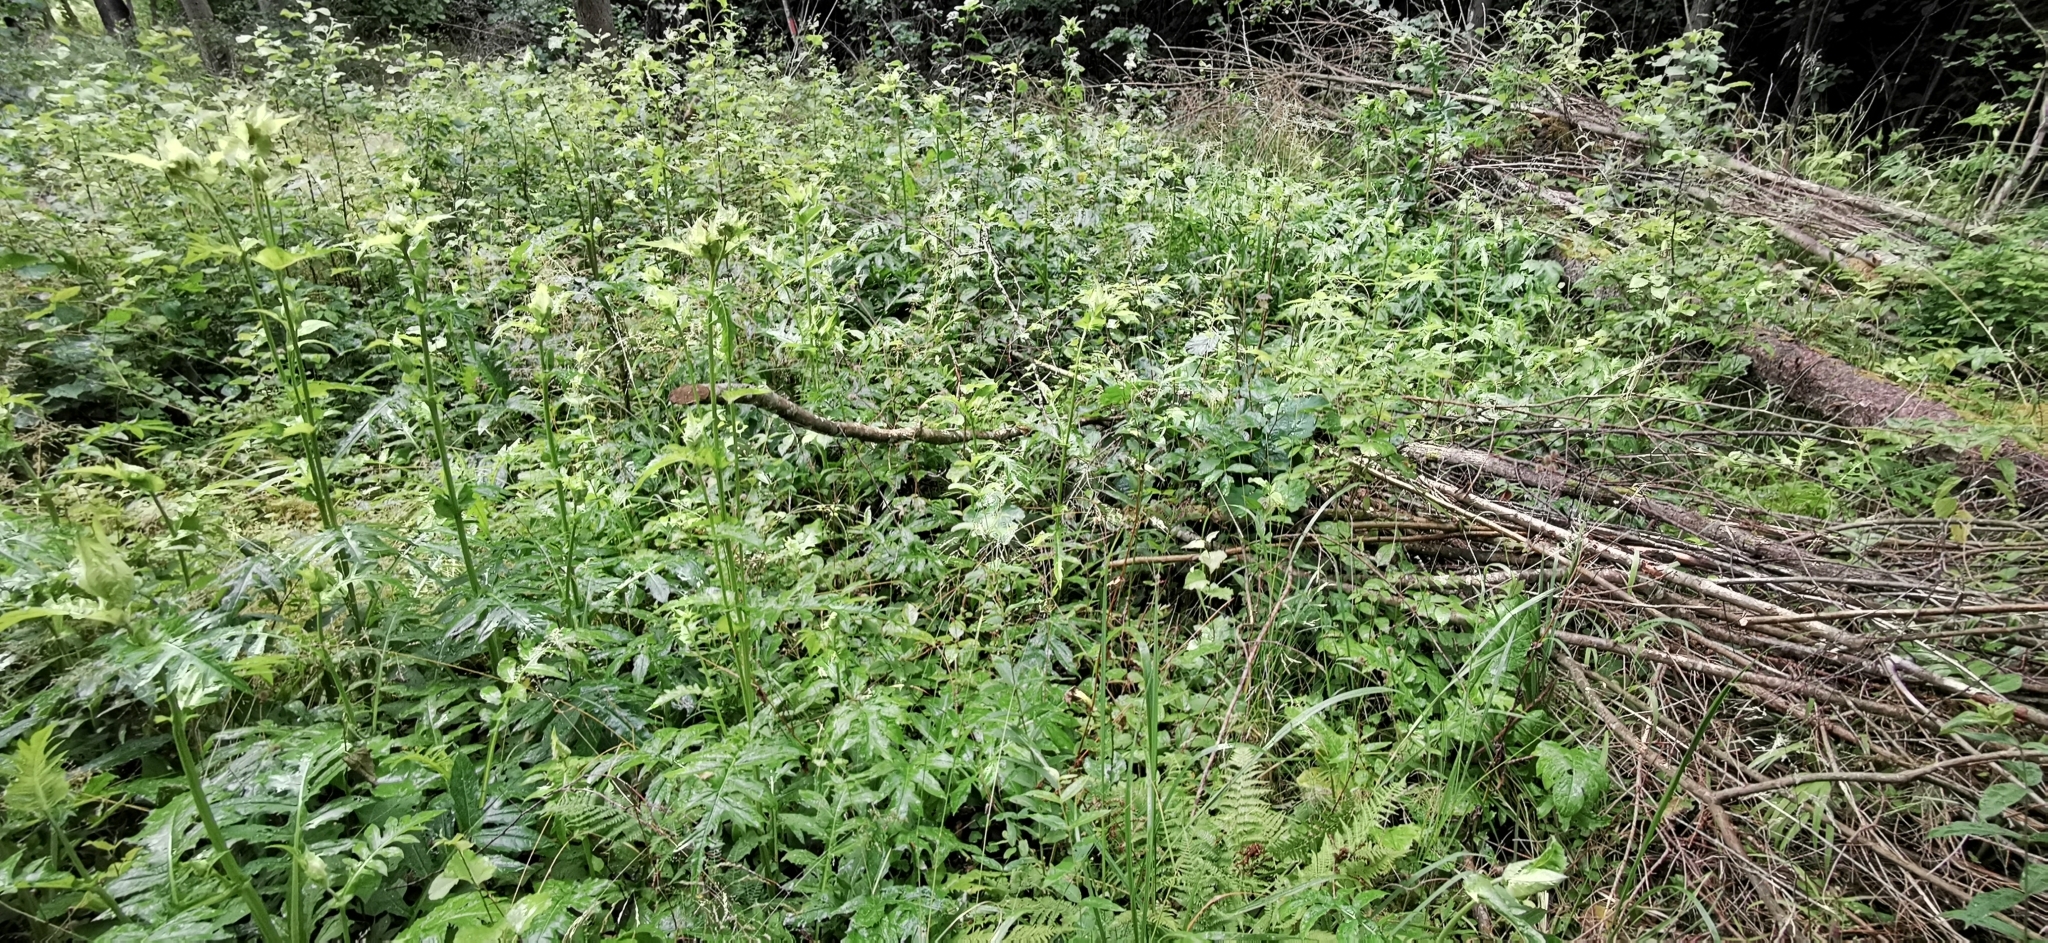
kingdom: Plantae
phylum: Tracheophyta
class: Magnoliopsida
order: Asterales
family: Asteraceae
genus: Cirsium
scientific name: Cirsium oleraceum
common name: Cabbage thistle
